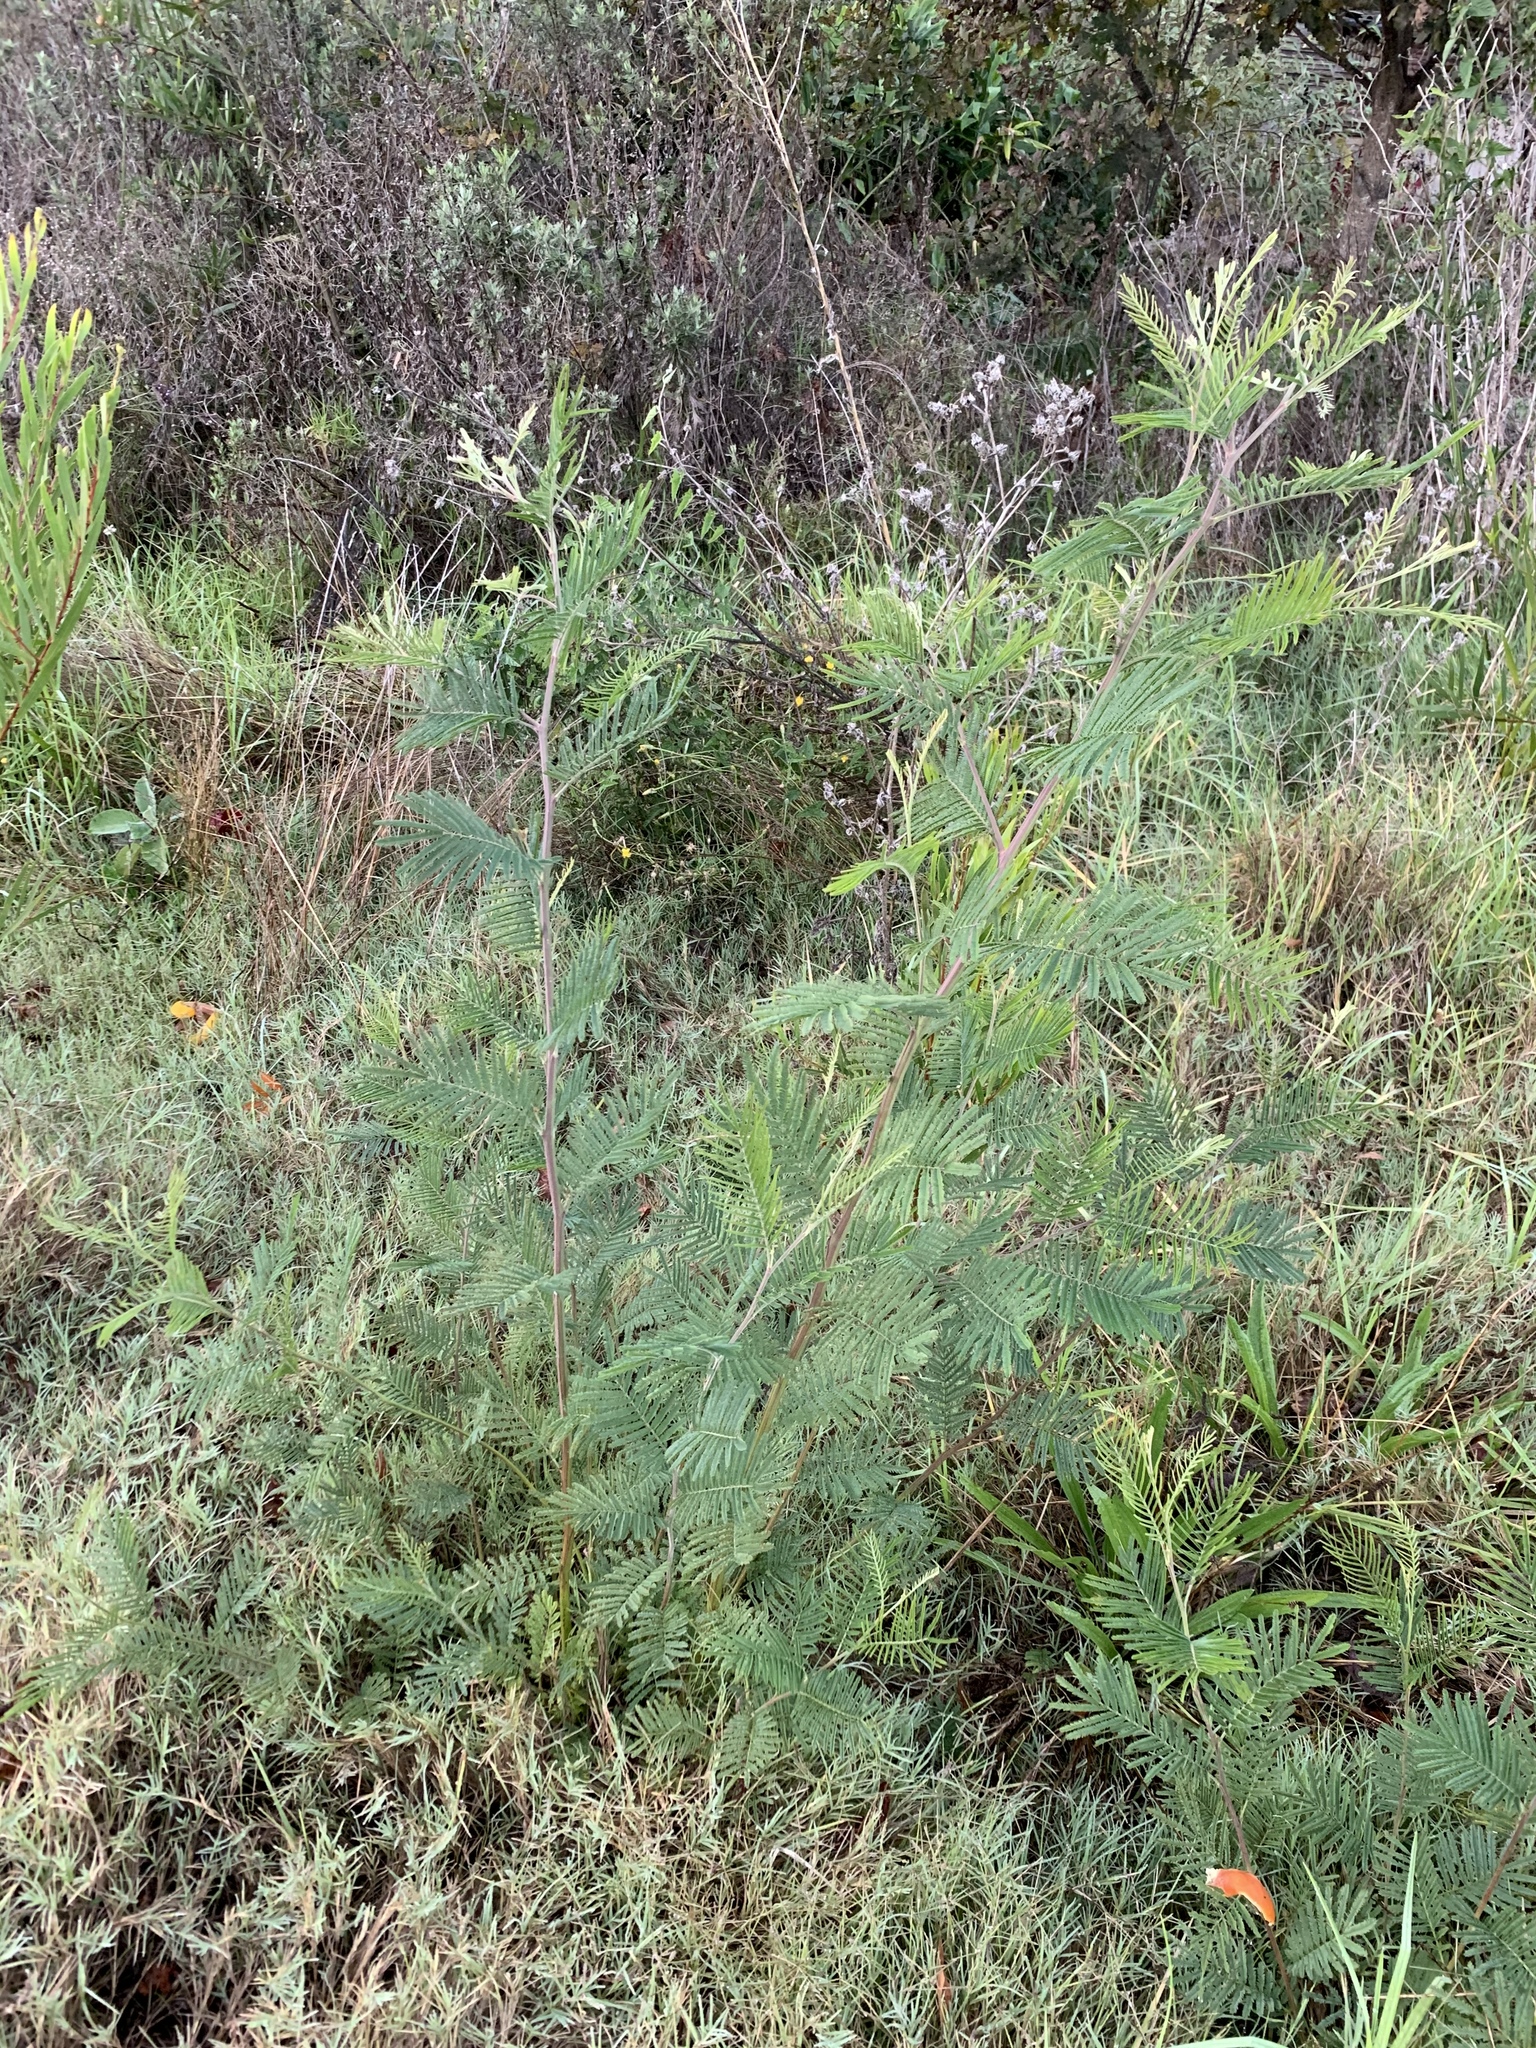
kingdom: Plantae
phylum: Tracheophyta
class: Magnoliopsida
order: Fabales
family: Fabaceae
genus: Acacia
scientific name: Acacia mearnsii
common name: Black wattle
